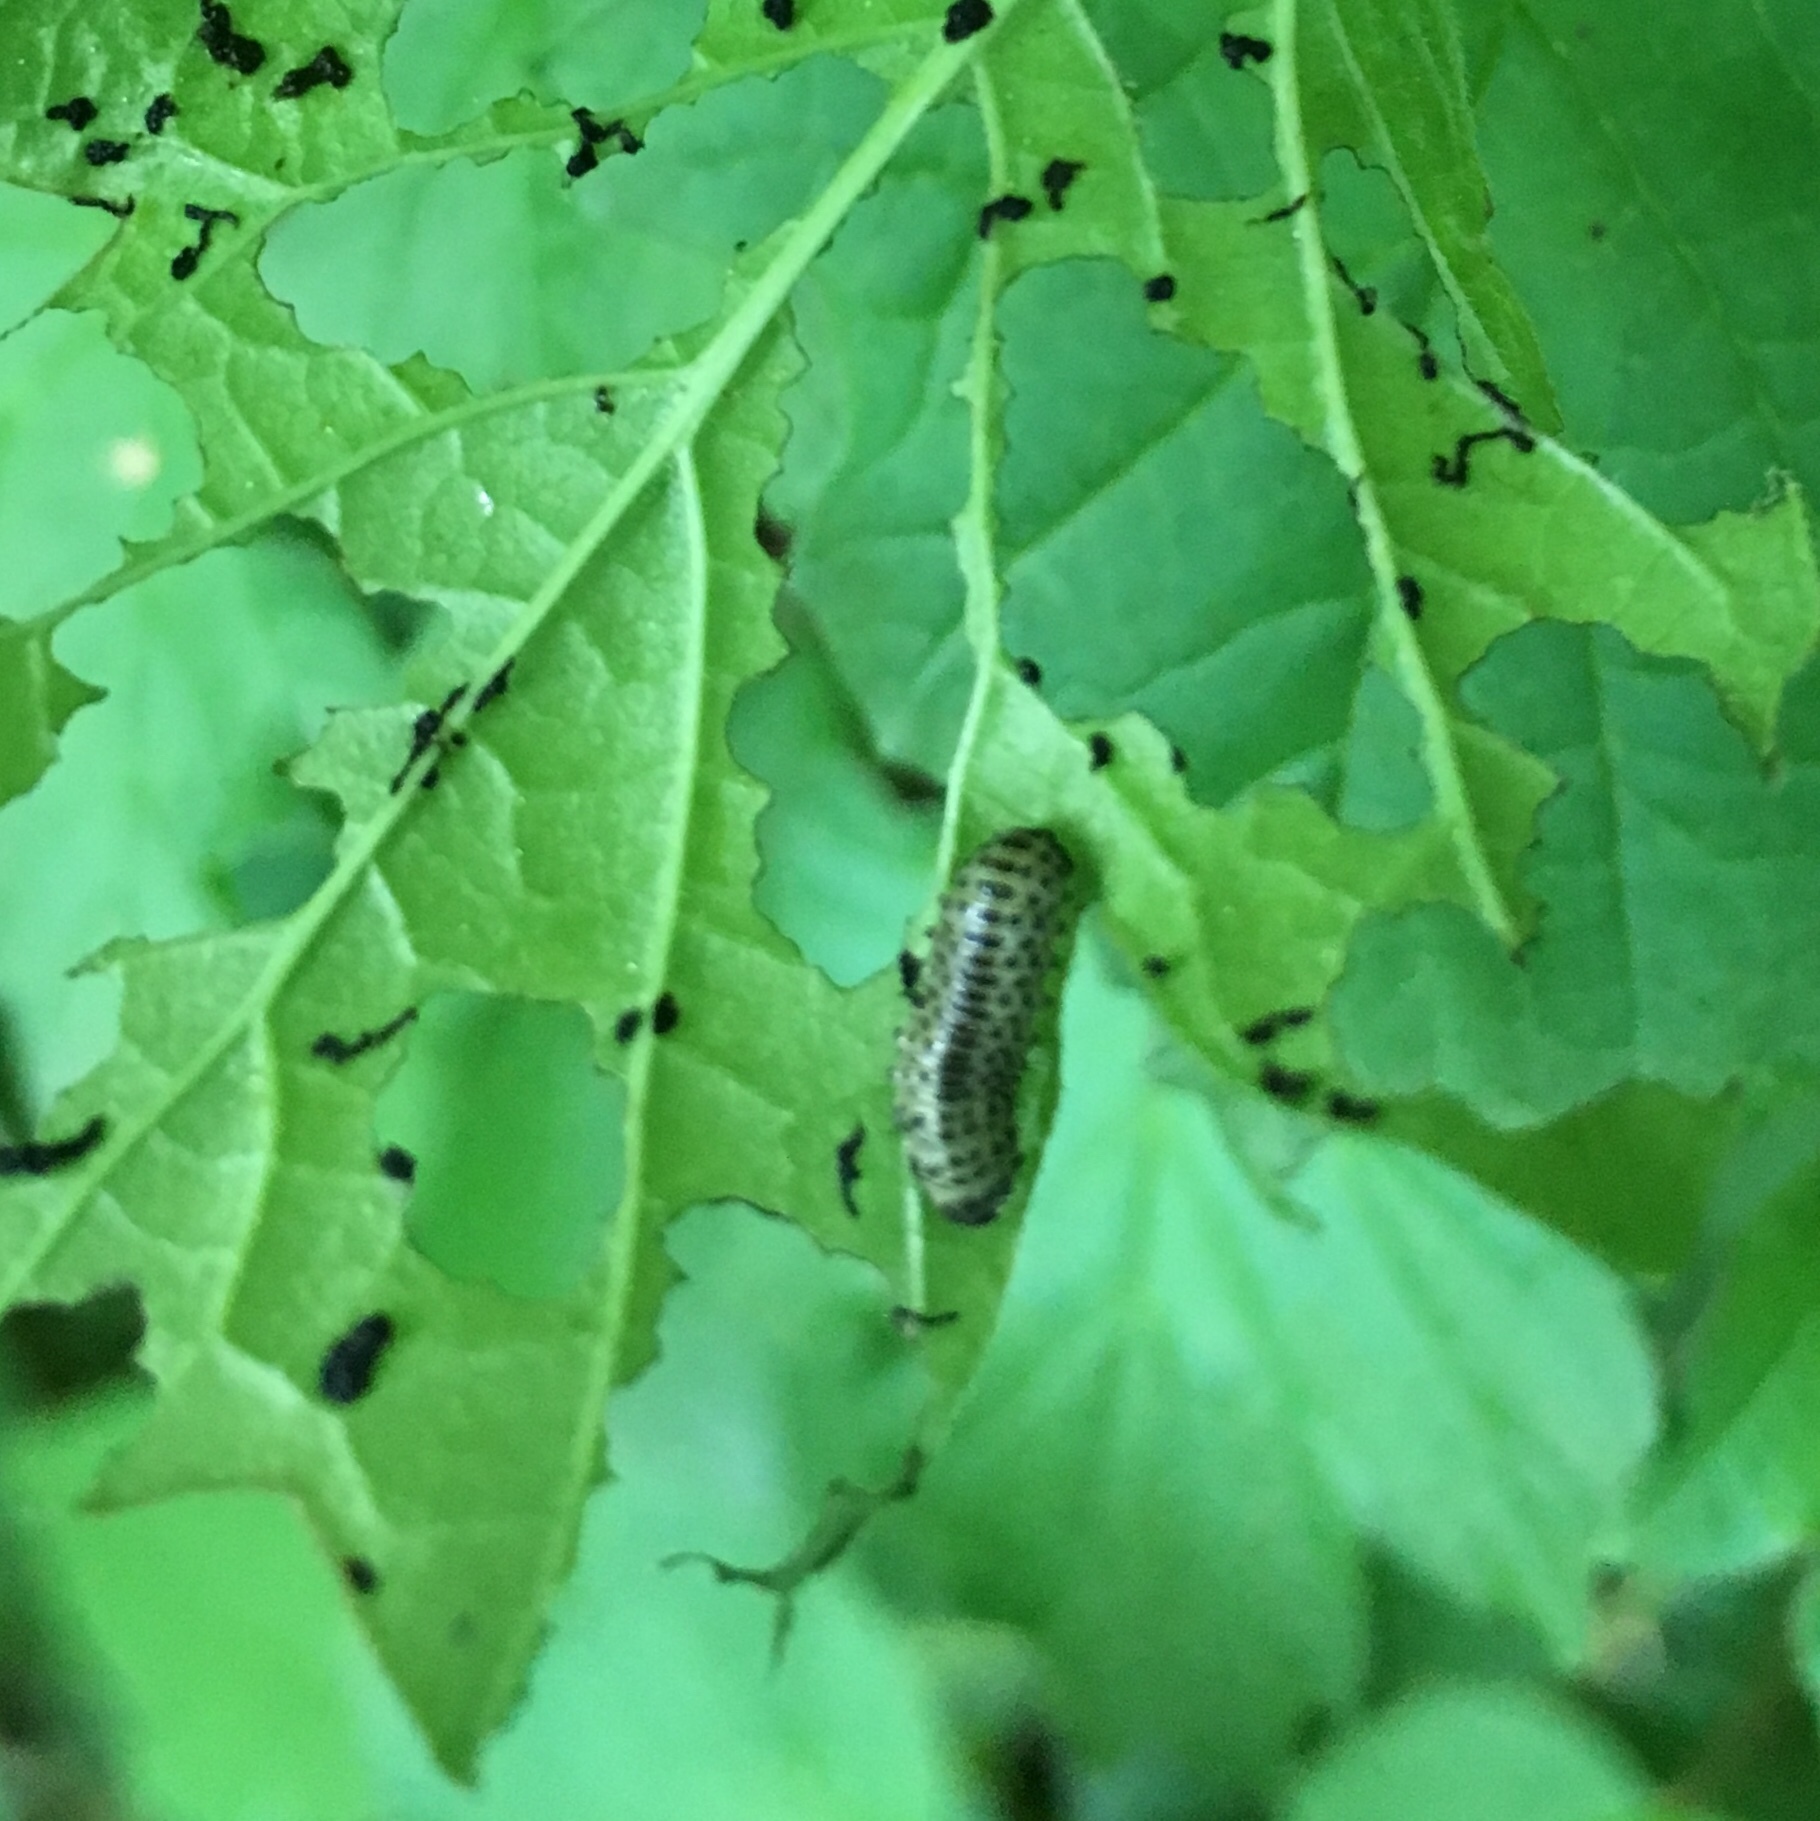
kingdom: Animalia
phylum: Arthropoda
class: Insecta
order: Coleoptera
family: Chrysomelidae
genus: Pyrrhalta
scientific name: Pyrrhalta viburni
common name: Guelder-rose leaf beetle
